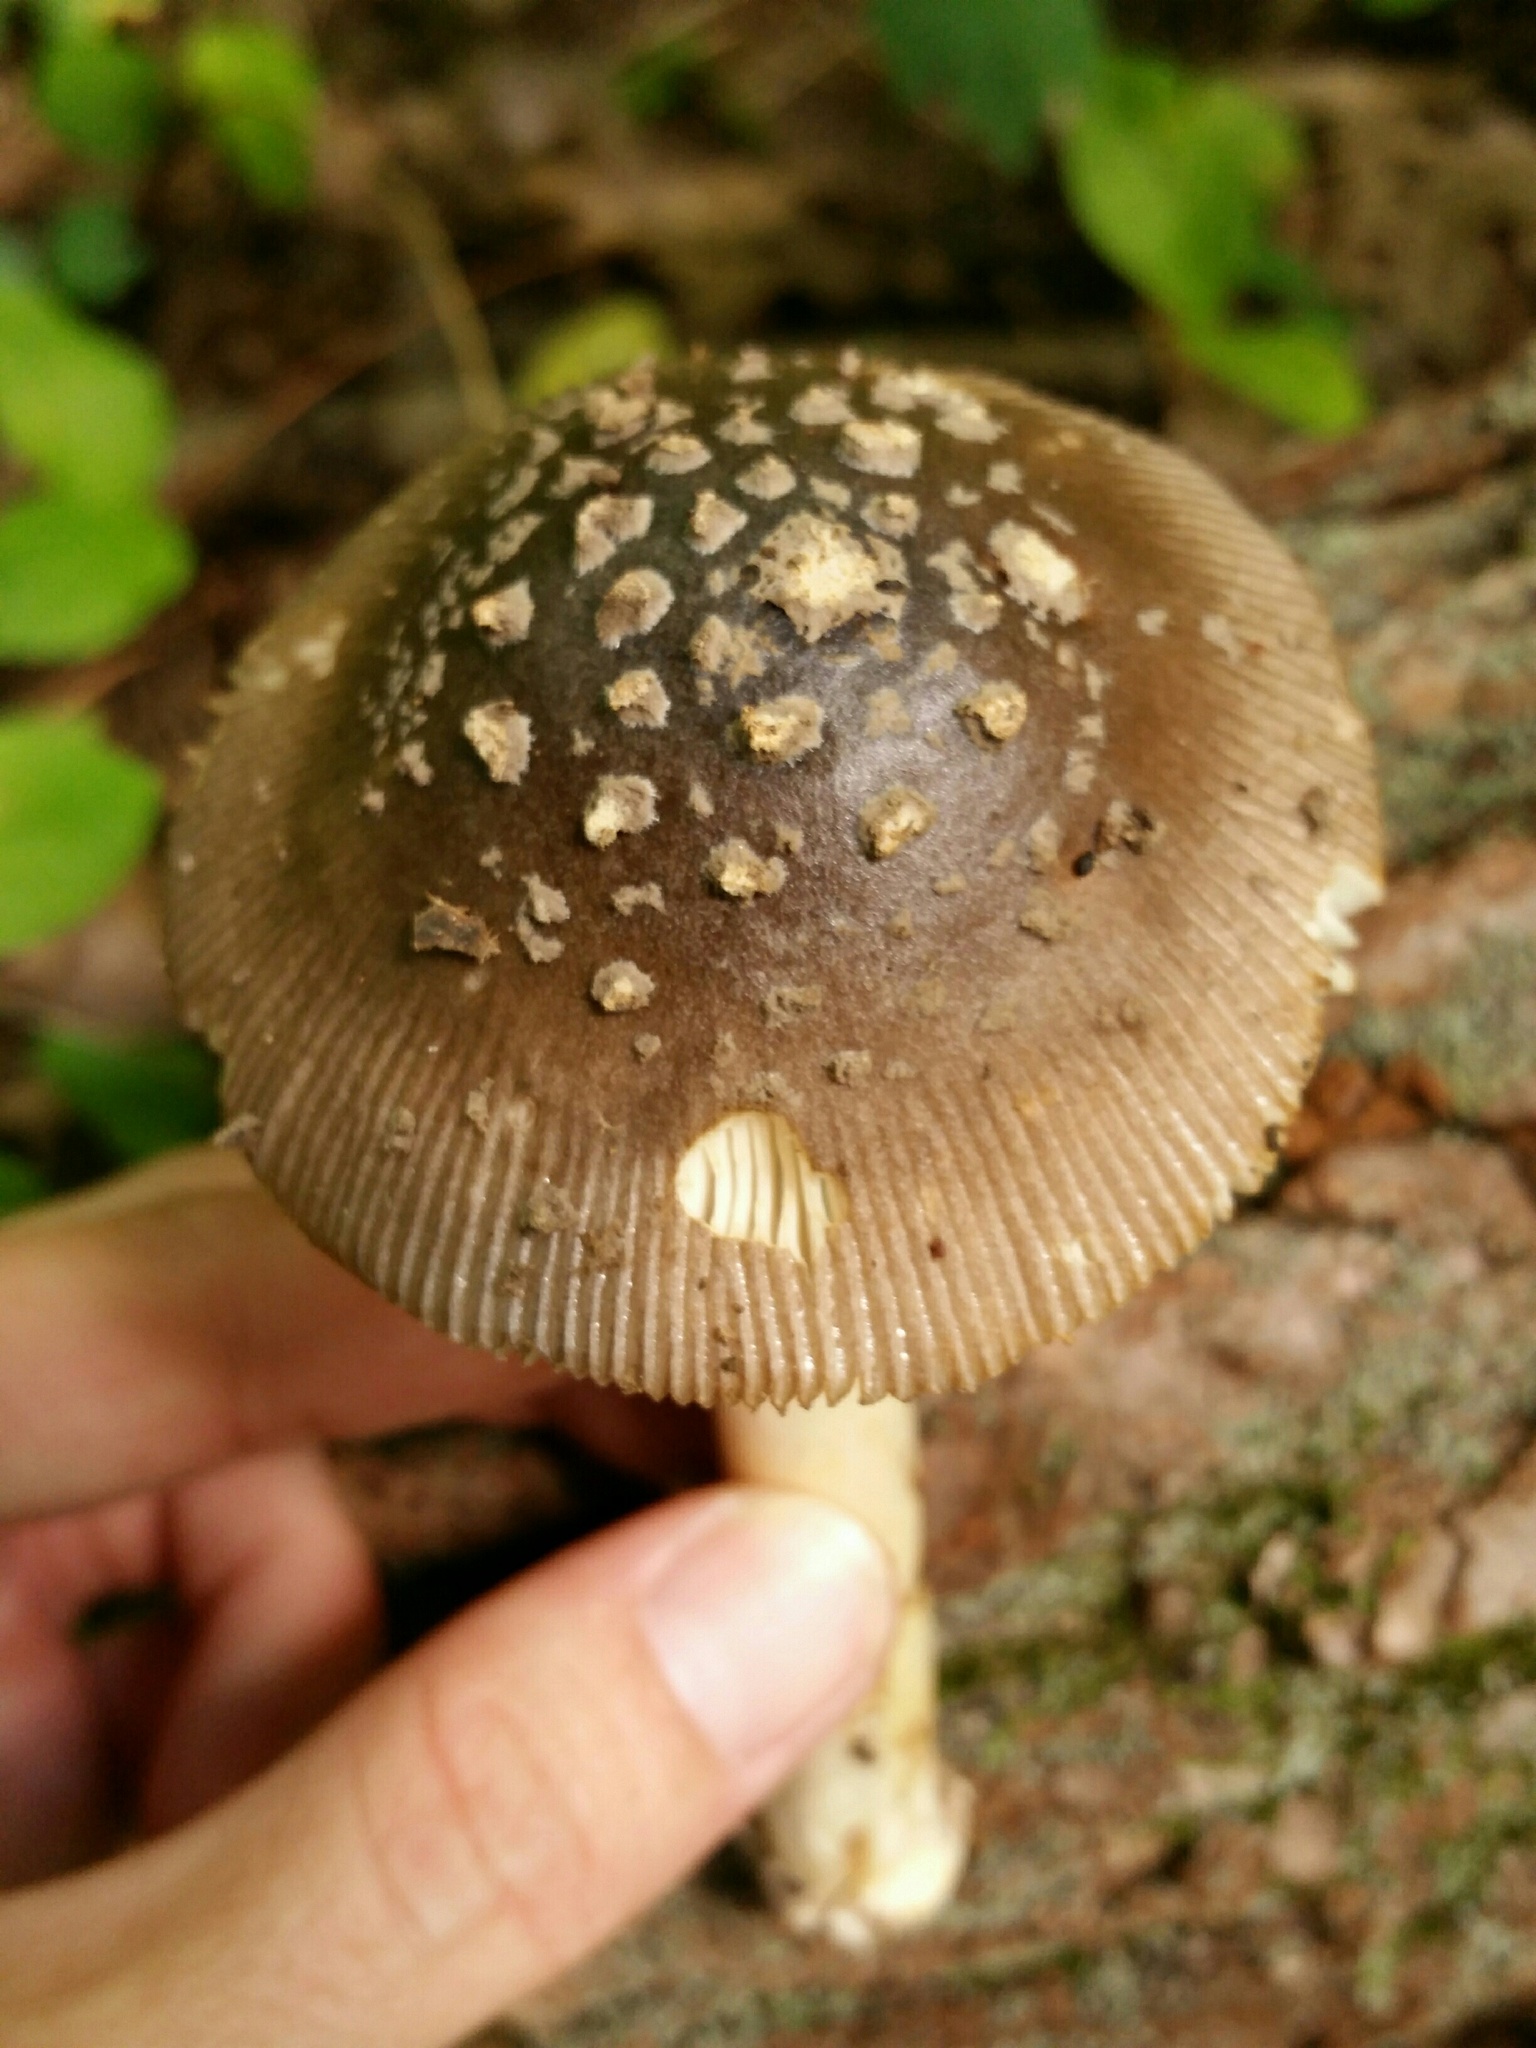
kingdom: Fungi
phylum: Basidiomycota
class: Agaricomycetes
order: Agaricales
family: Amanitaceae
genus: Amanita
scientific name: Amanita sororcula
